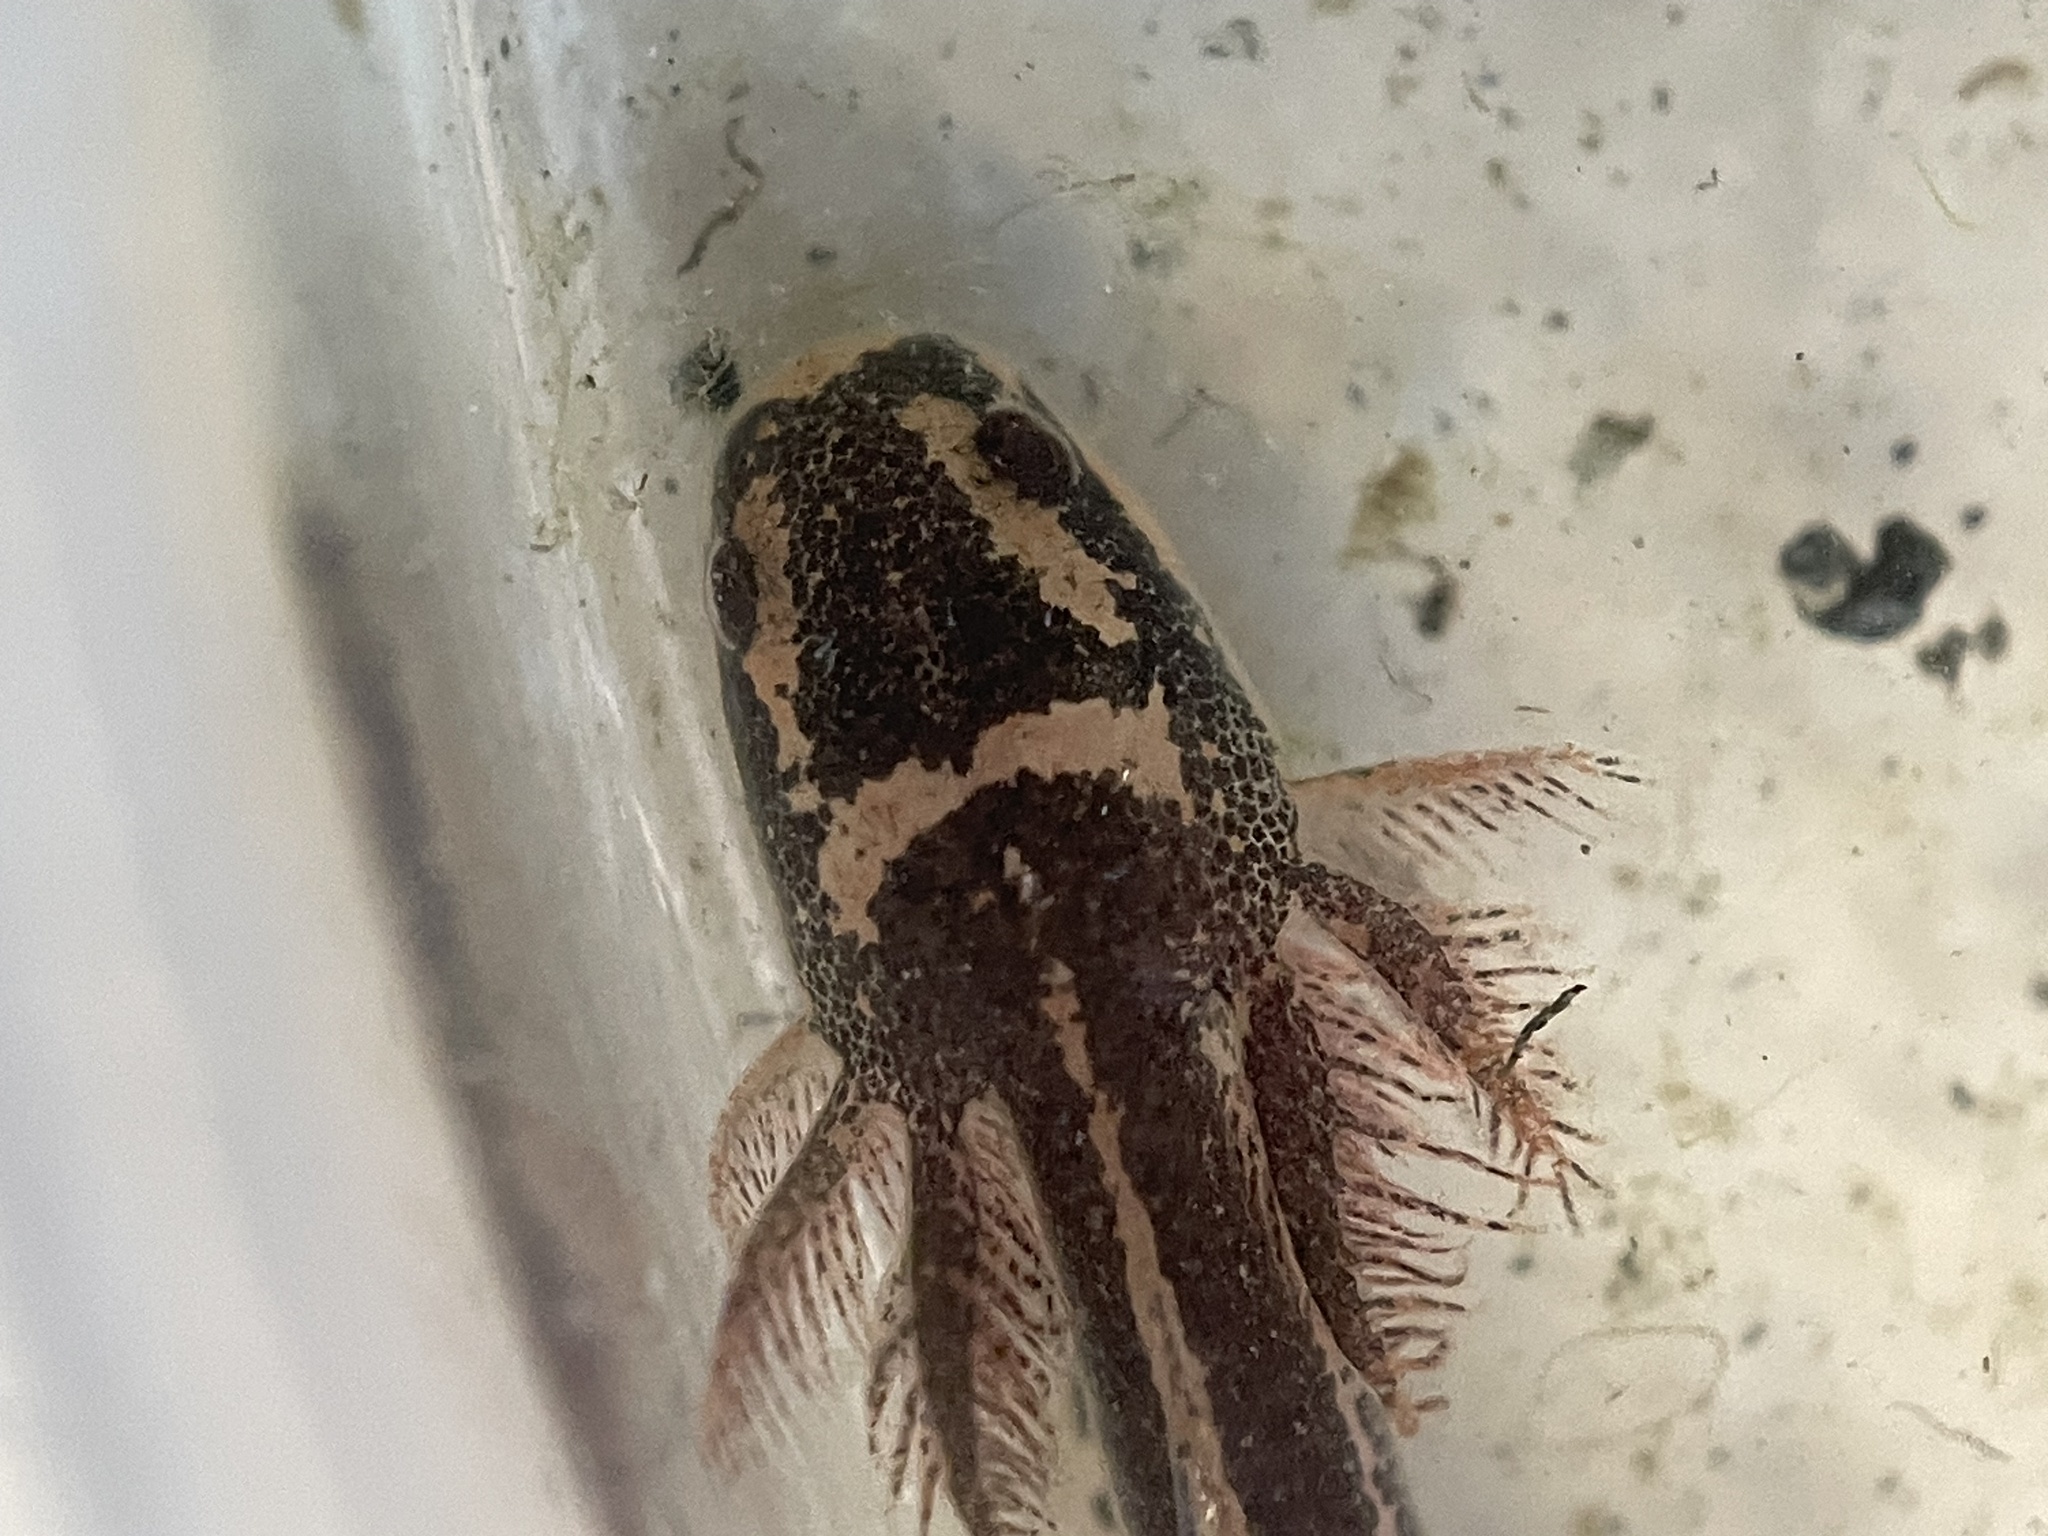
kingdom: Animalia
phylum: Chordata
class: Amphibia
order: Caudata
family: Sirenidae
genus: Siren
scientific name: Siren intermedia
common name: Lesser siren
